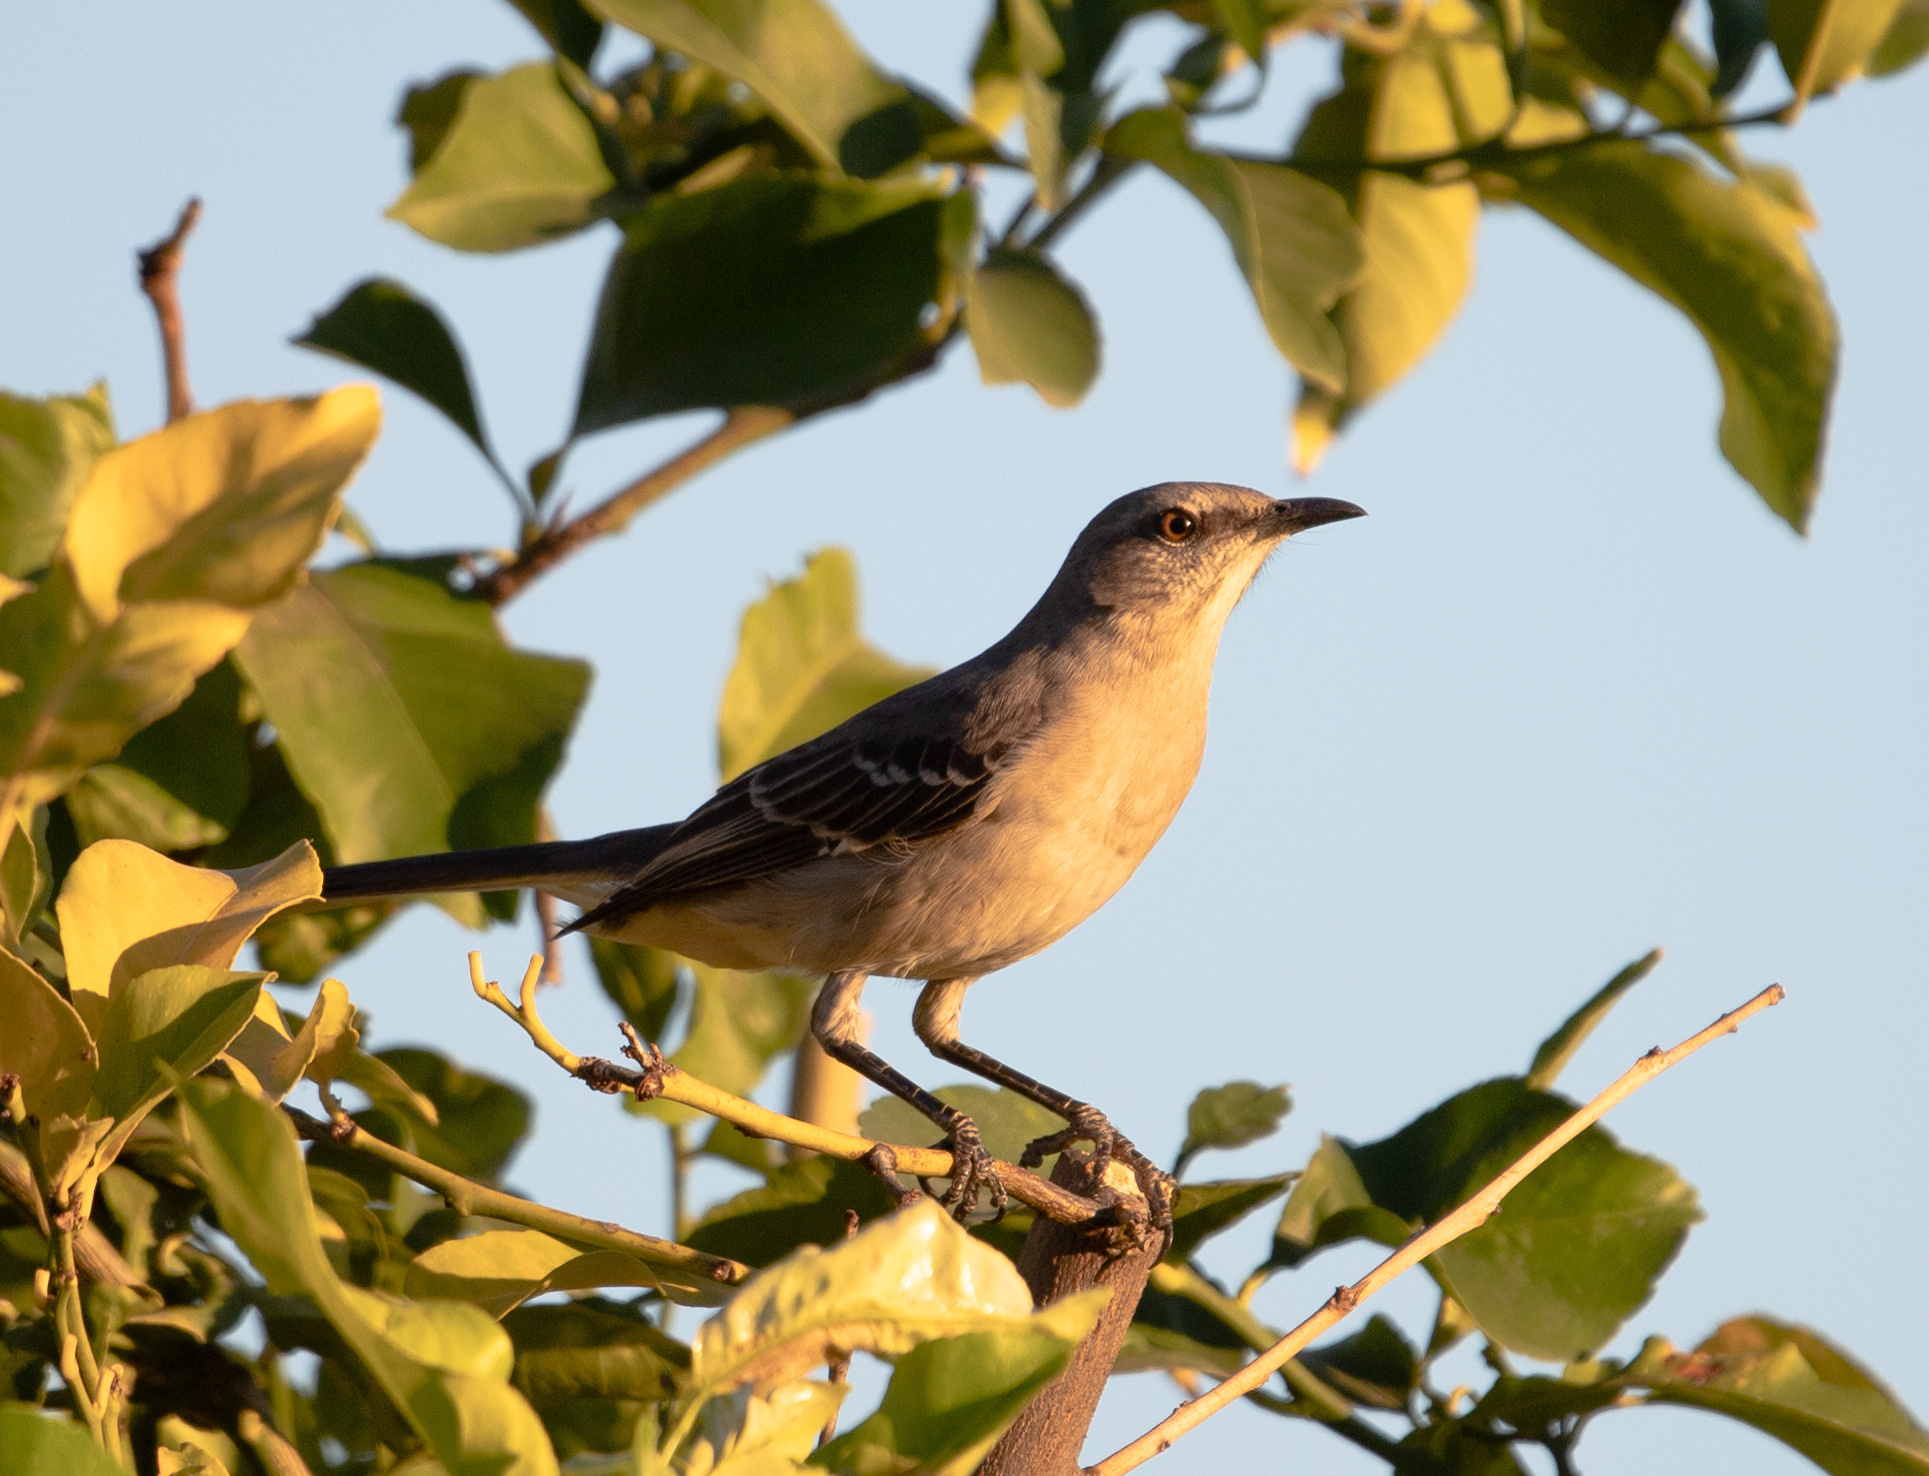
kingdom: Animalia
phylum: Chordata
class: Aves
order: Passeriformes
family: Mimidae
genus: Mimus
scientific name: Mimus polyglottos
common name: Northern mockingbird
